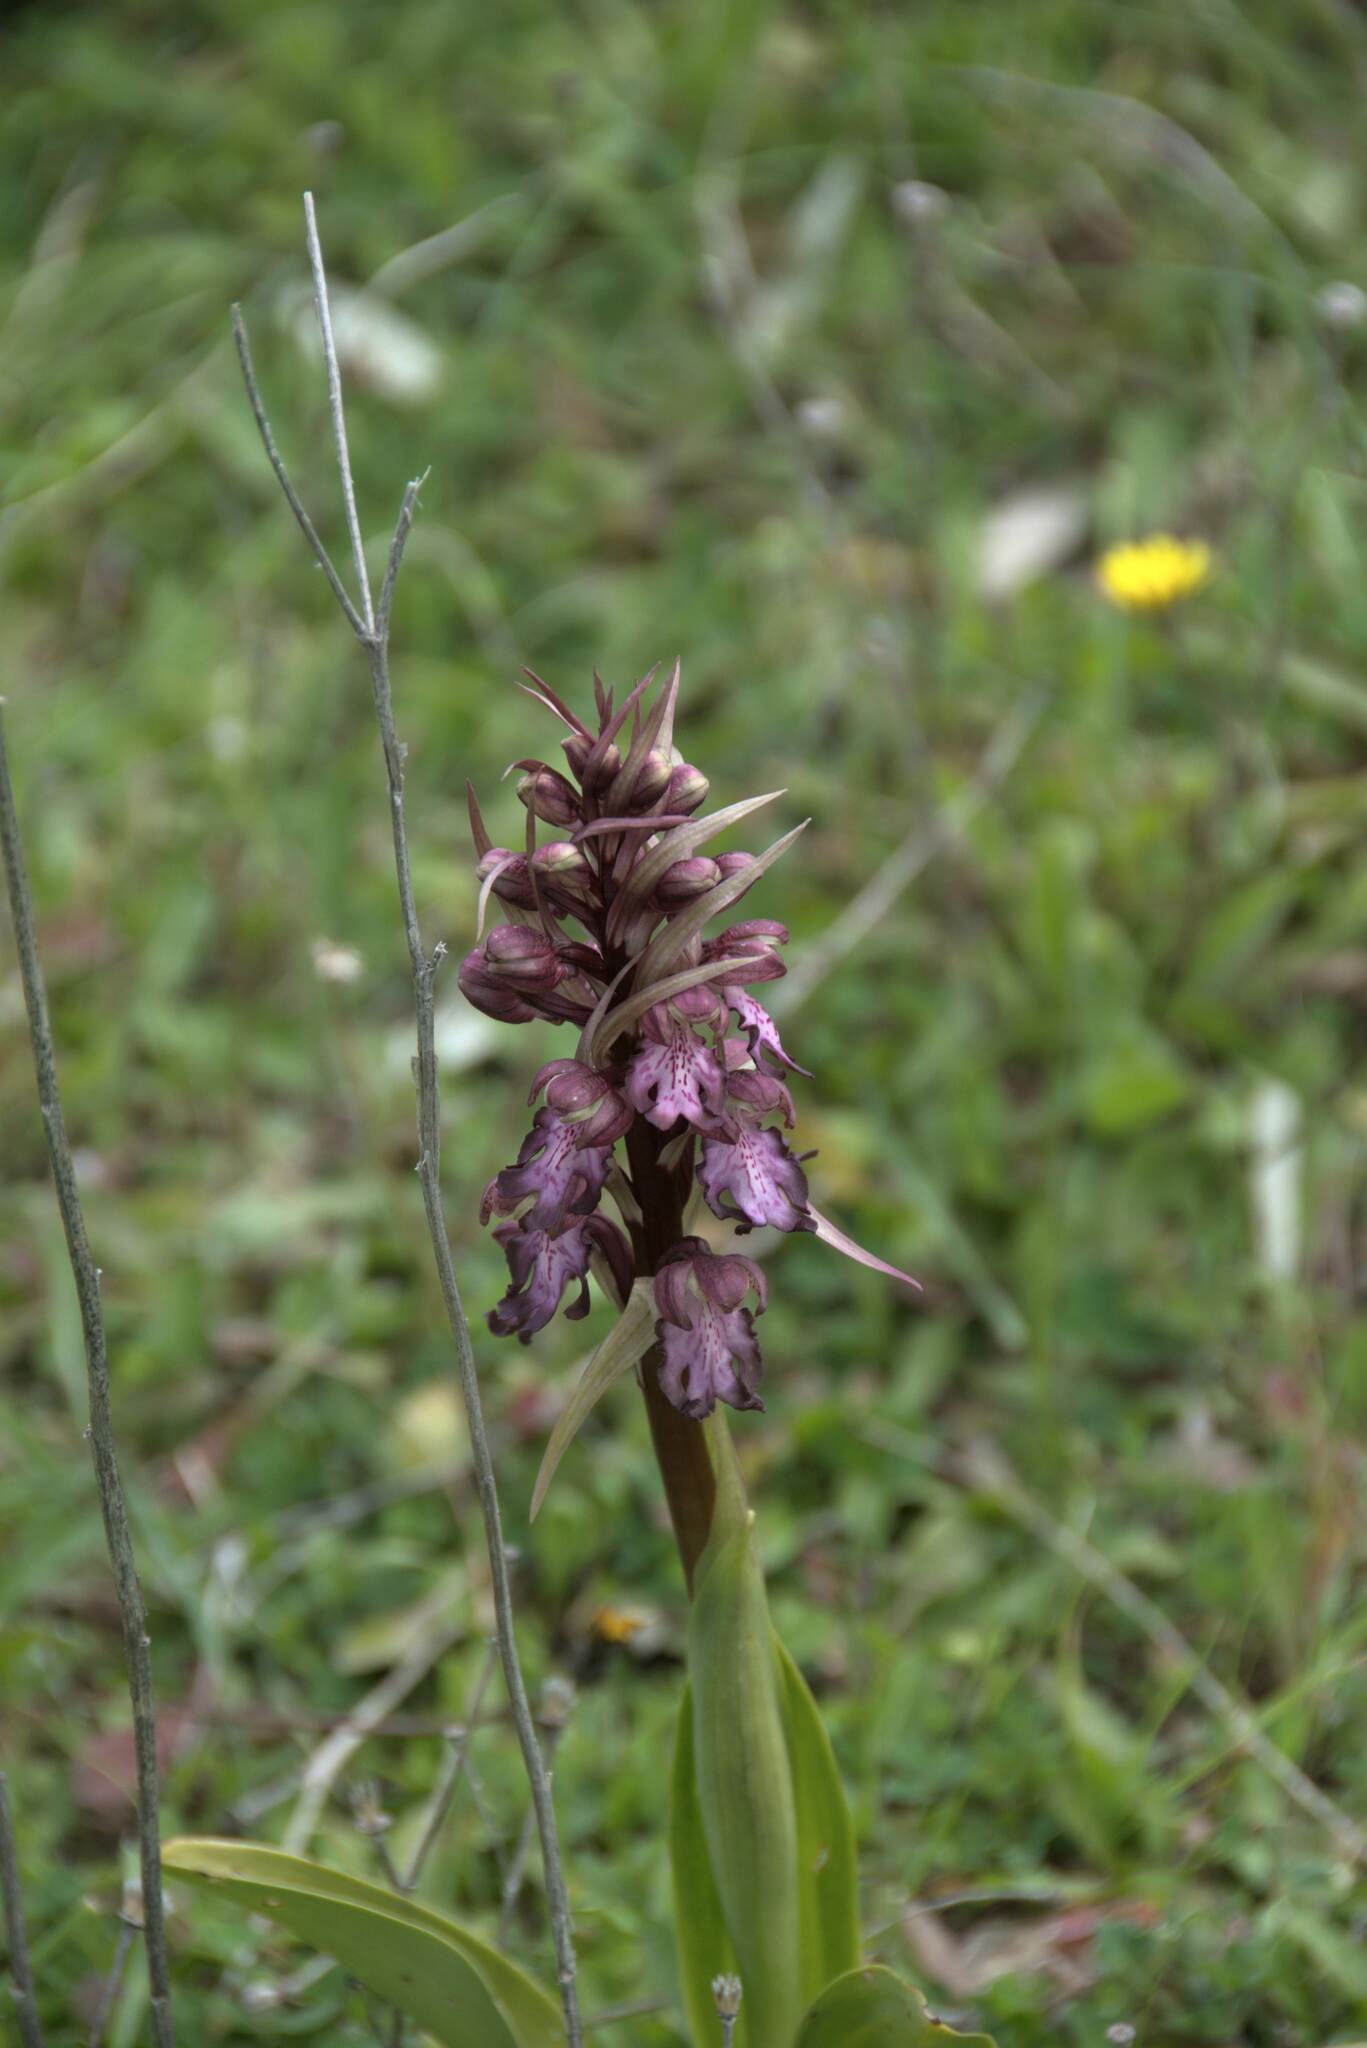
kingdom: Plantae
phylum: Tracheophyta
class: Liliopsida
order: Asparagales
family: Orchidaceae
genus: Himantoglossum
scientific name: Himantoglossum robertianum
